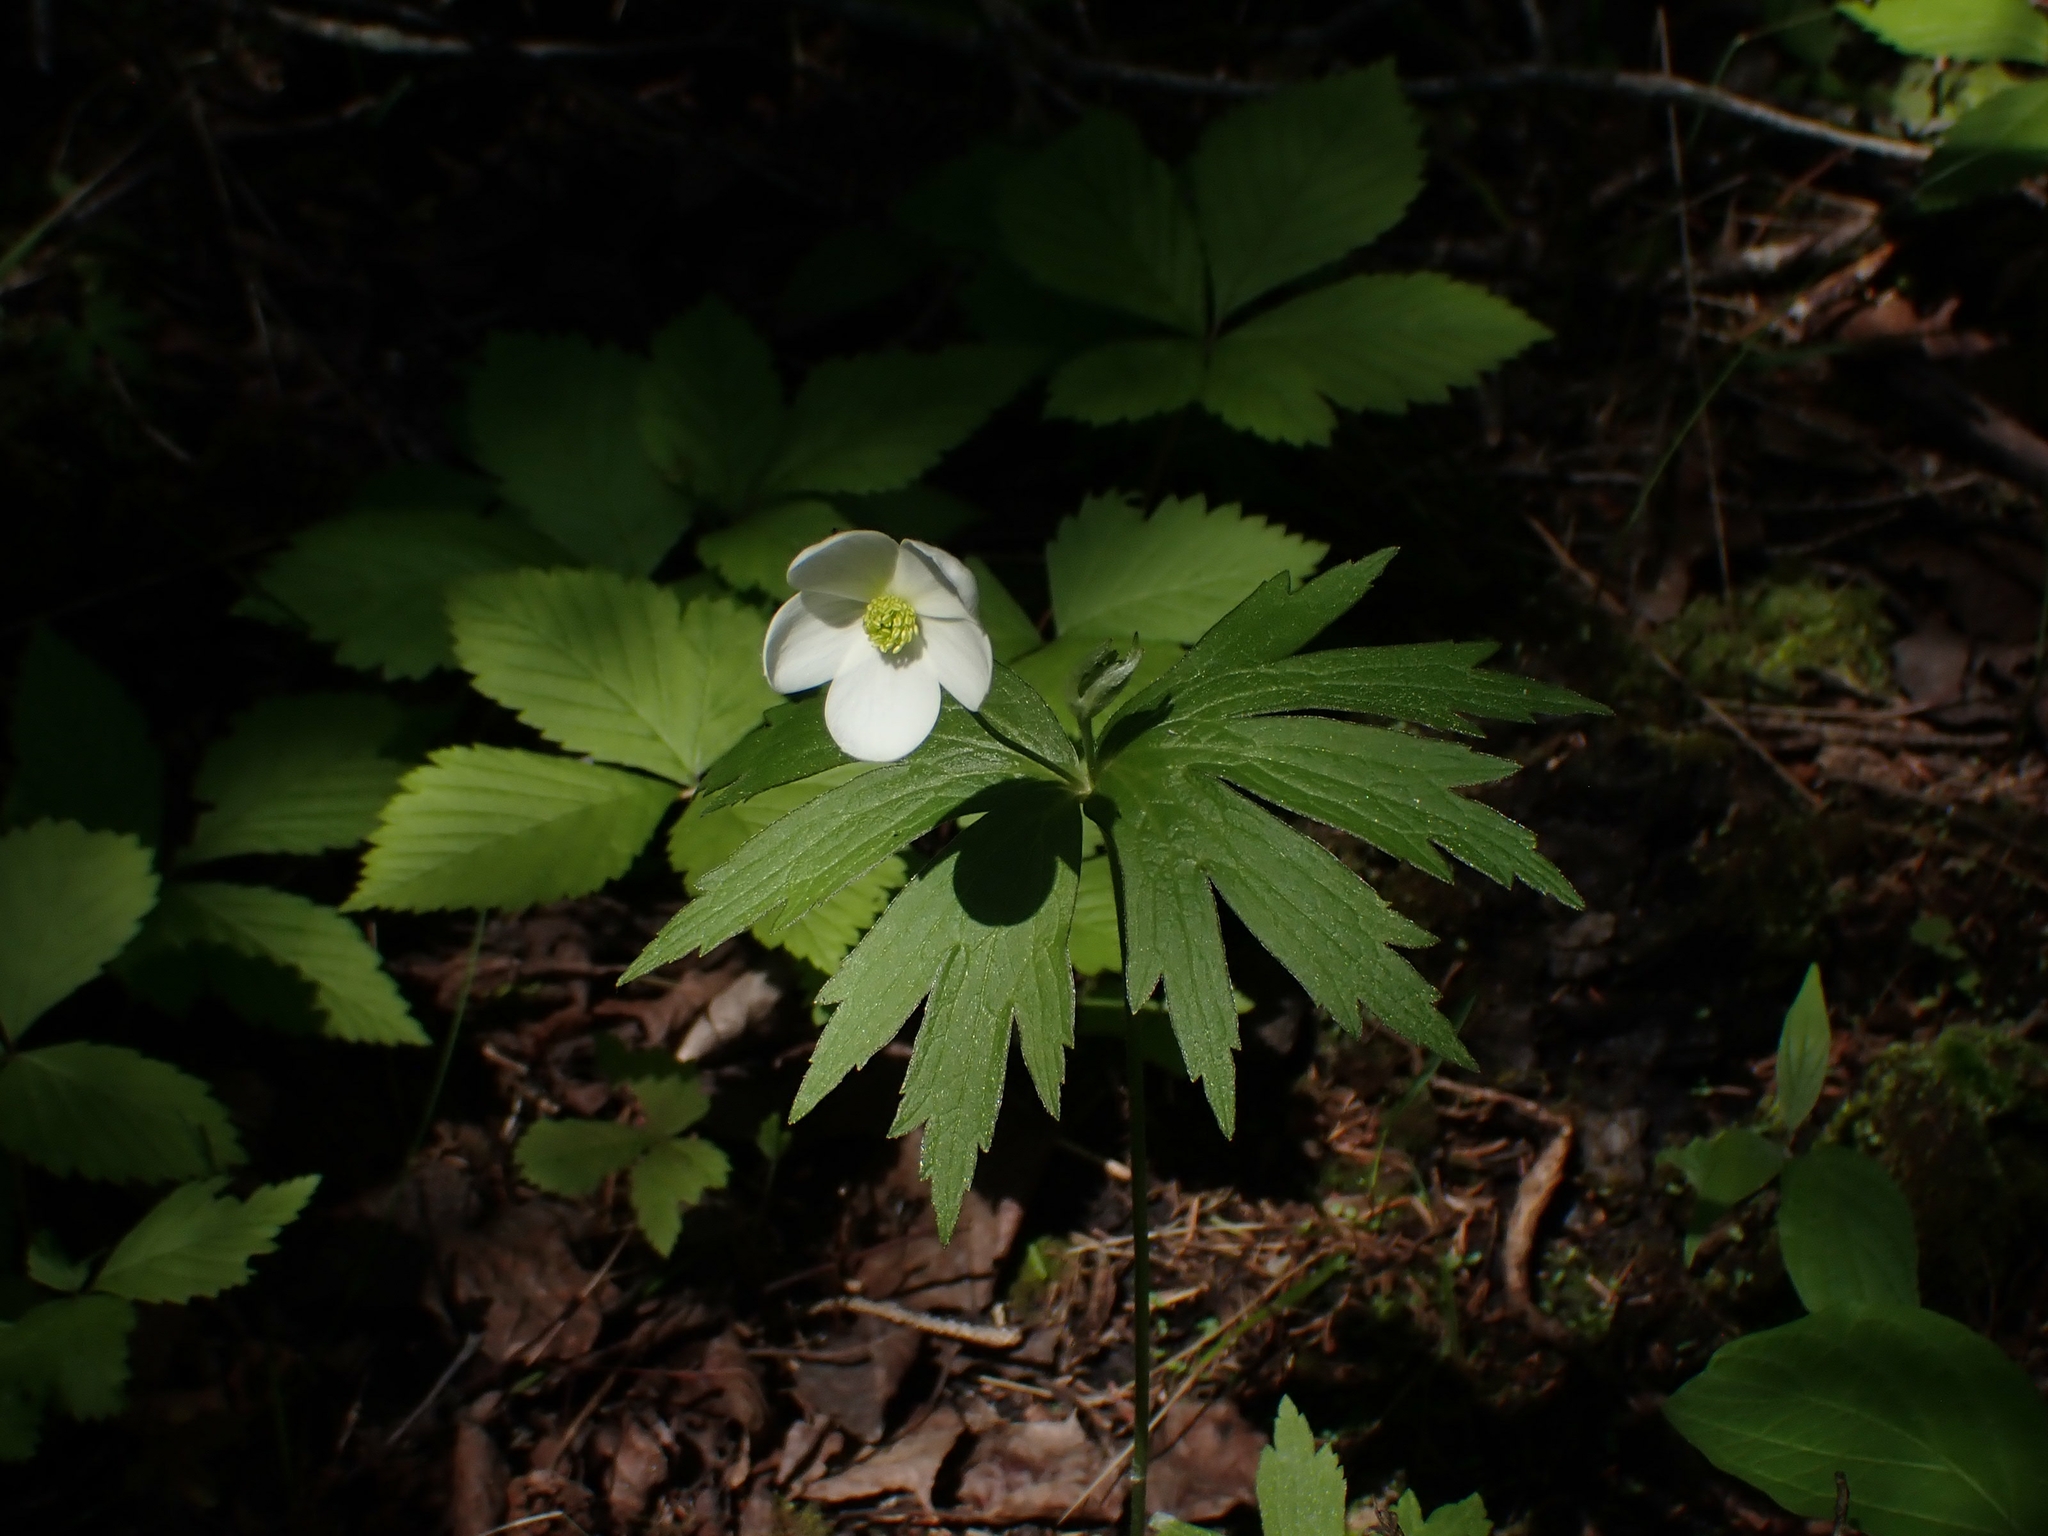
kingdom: Plantae
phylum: Tracheophyta
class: Magnoliopsida
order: Ranunculales
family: Ranunculaceae
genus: Anemonastrum
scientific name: Anemonastrum canadense
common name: Canada anemone
